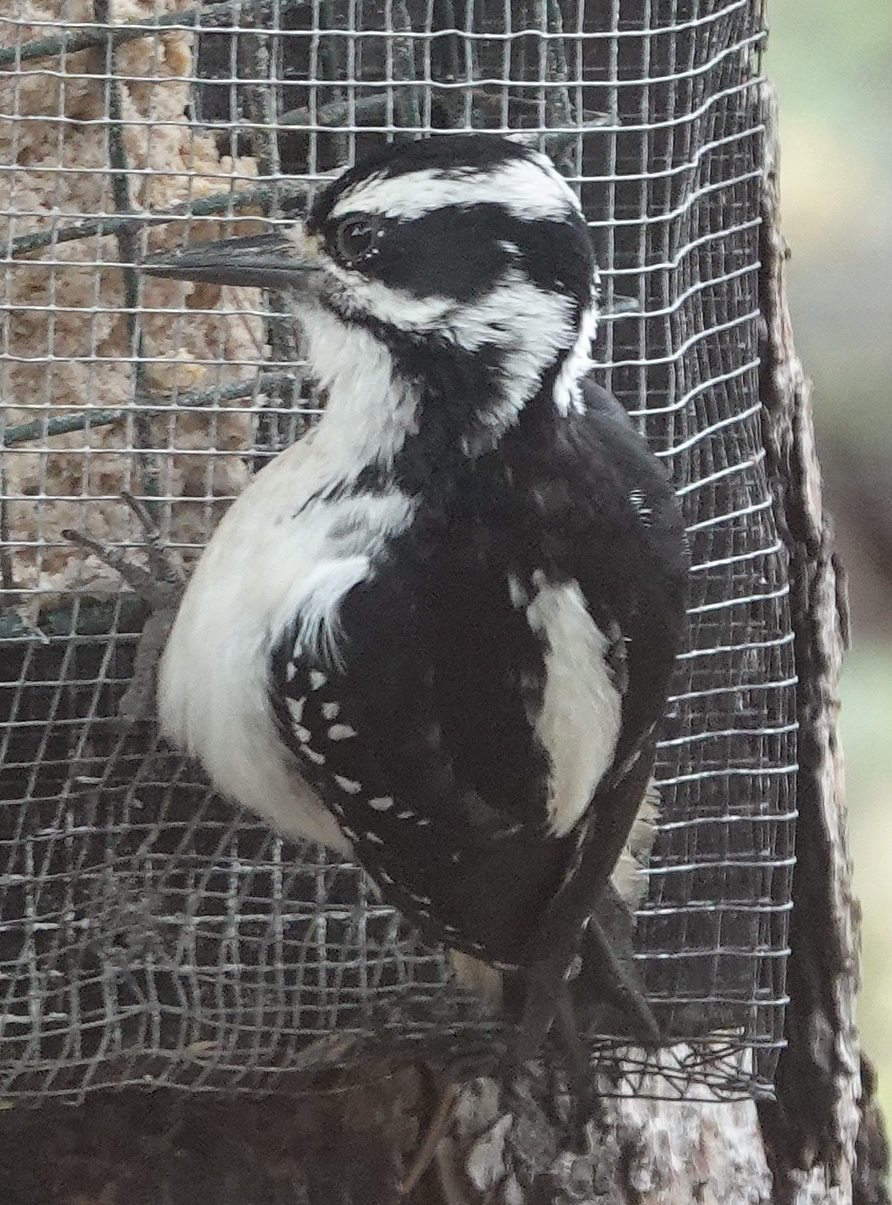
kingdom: Animalia
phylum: Chordata
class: Aves
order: Piciformes
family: Picidae
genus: Leuconotopicus
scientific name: Leuconotopicus villosus
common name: Hairy woodpecker
